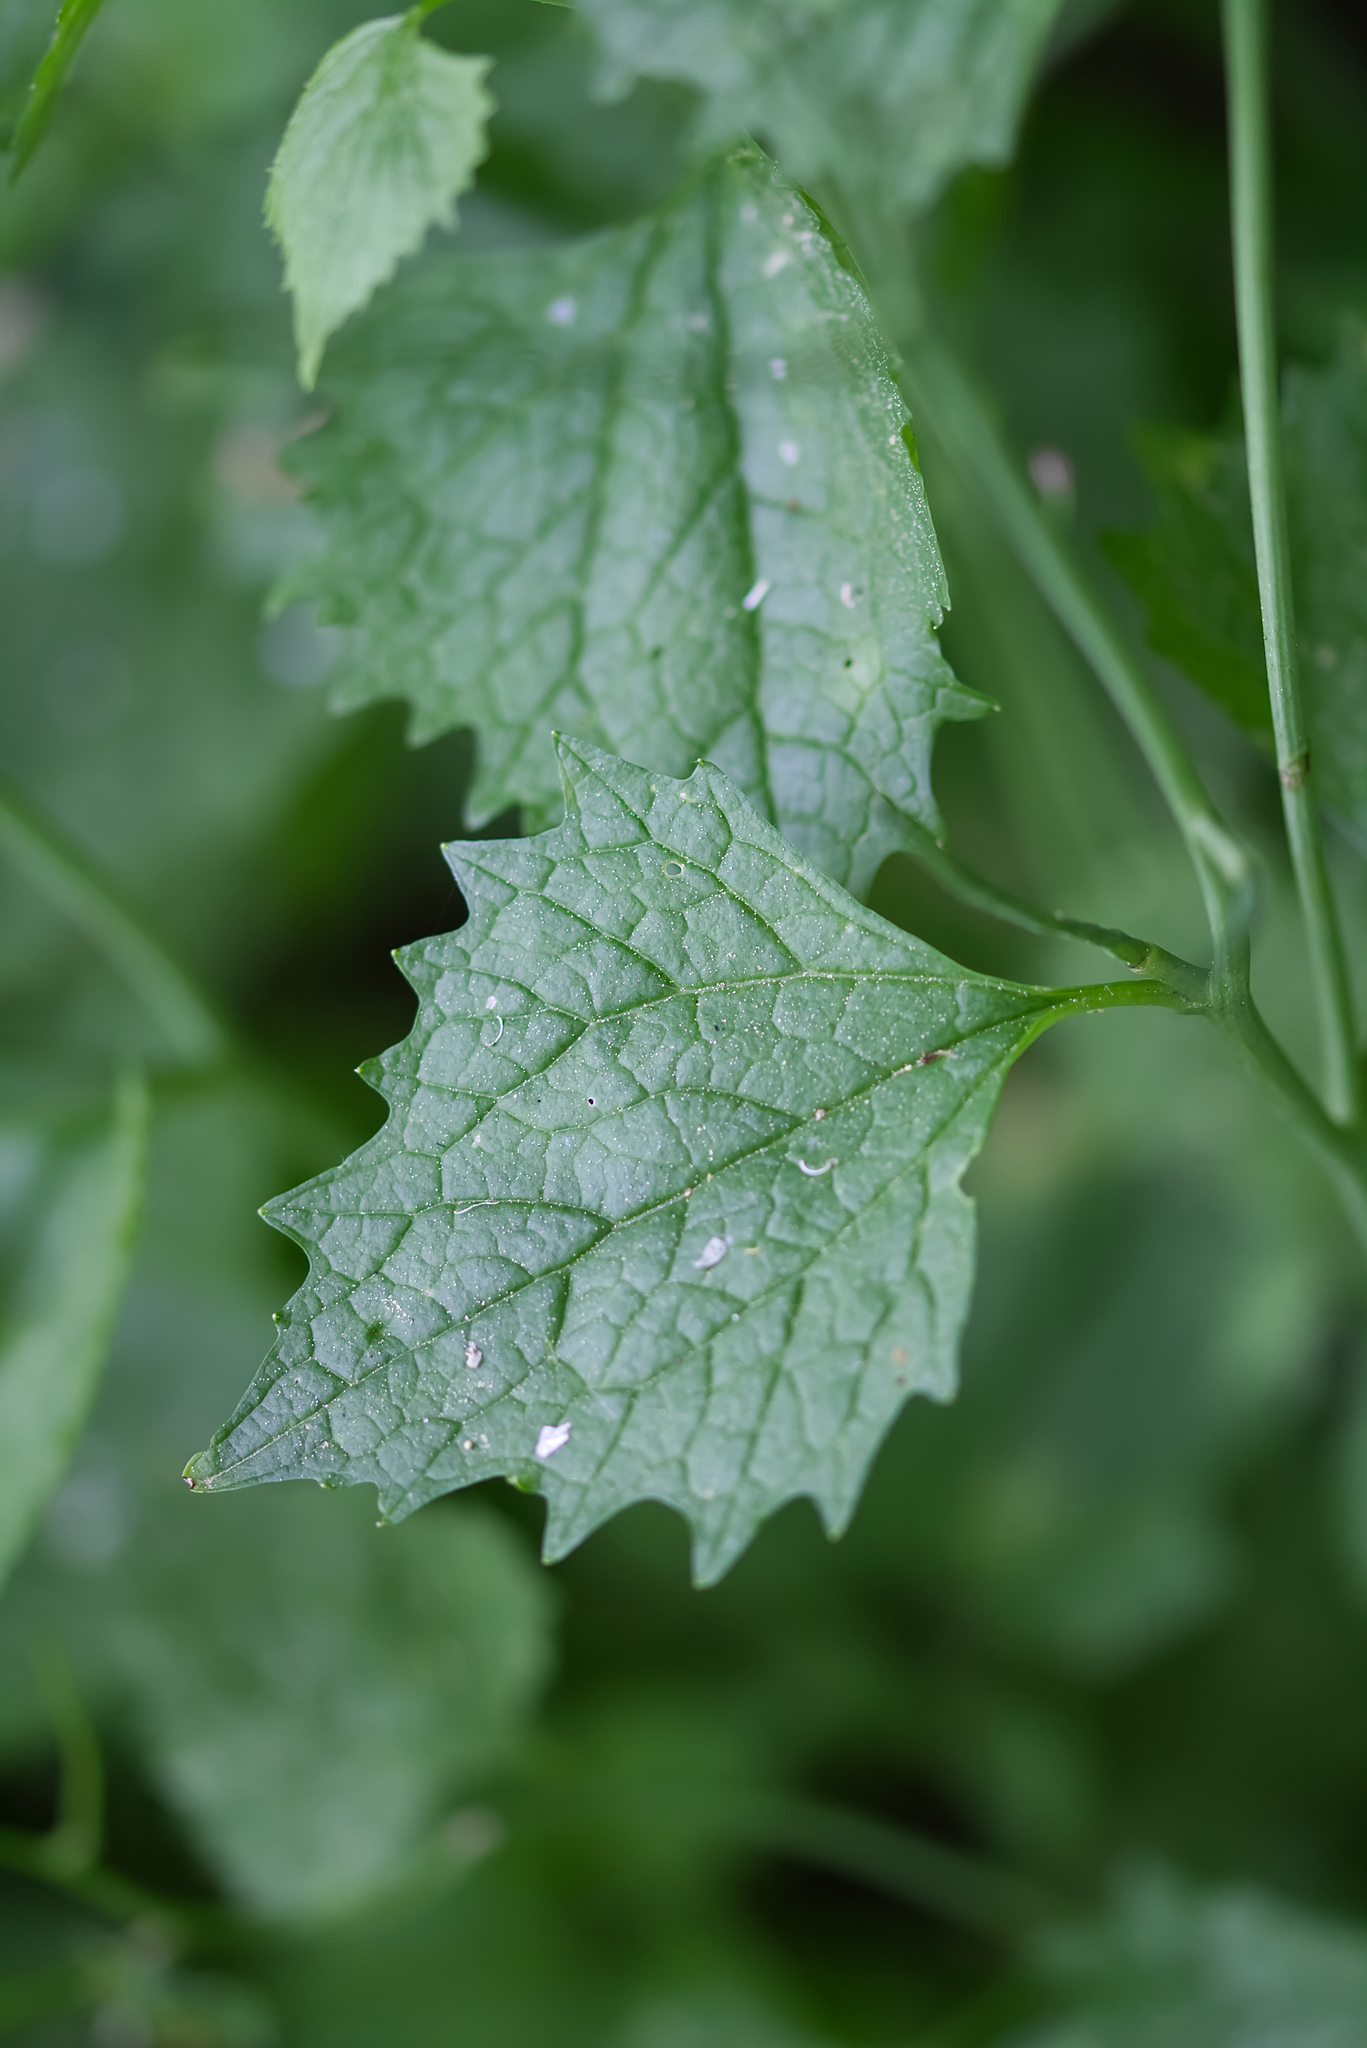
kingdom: Plantae
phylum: Tracheophyta
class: Magnoliopsida
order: Brassicales
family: Brassicaceae
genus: Alliaria
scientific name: Alliaria petiolata
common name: Garlic mustard
